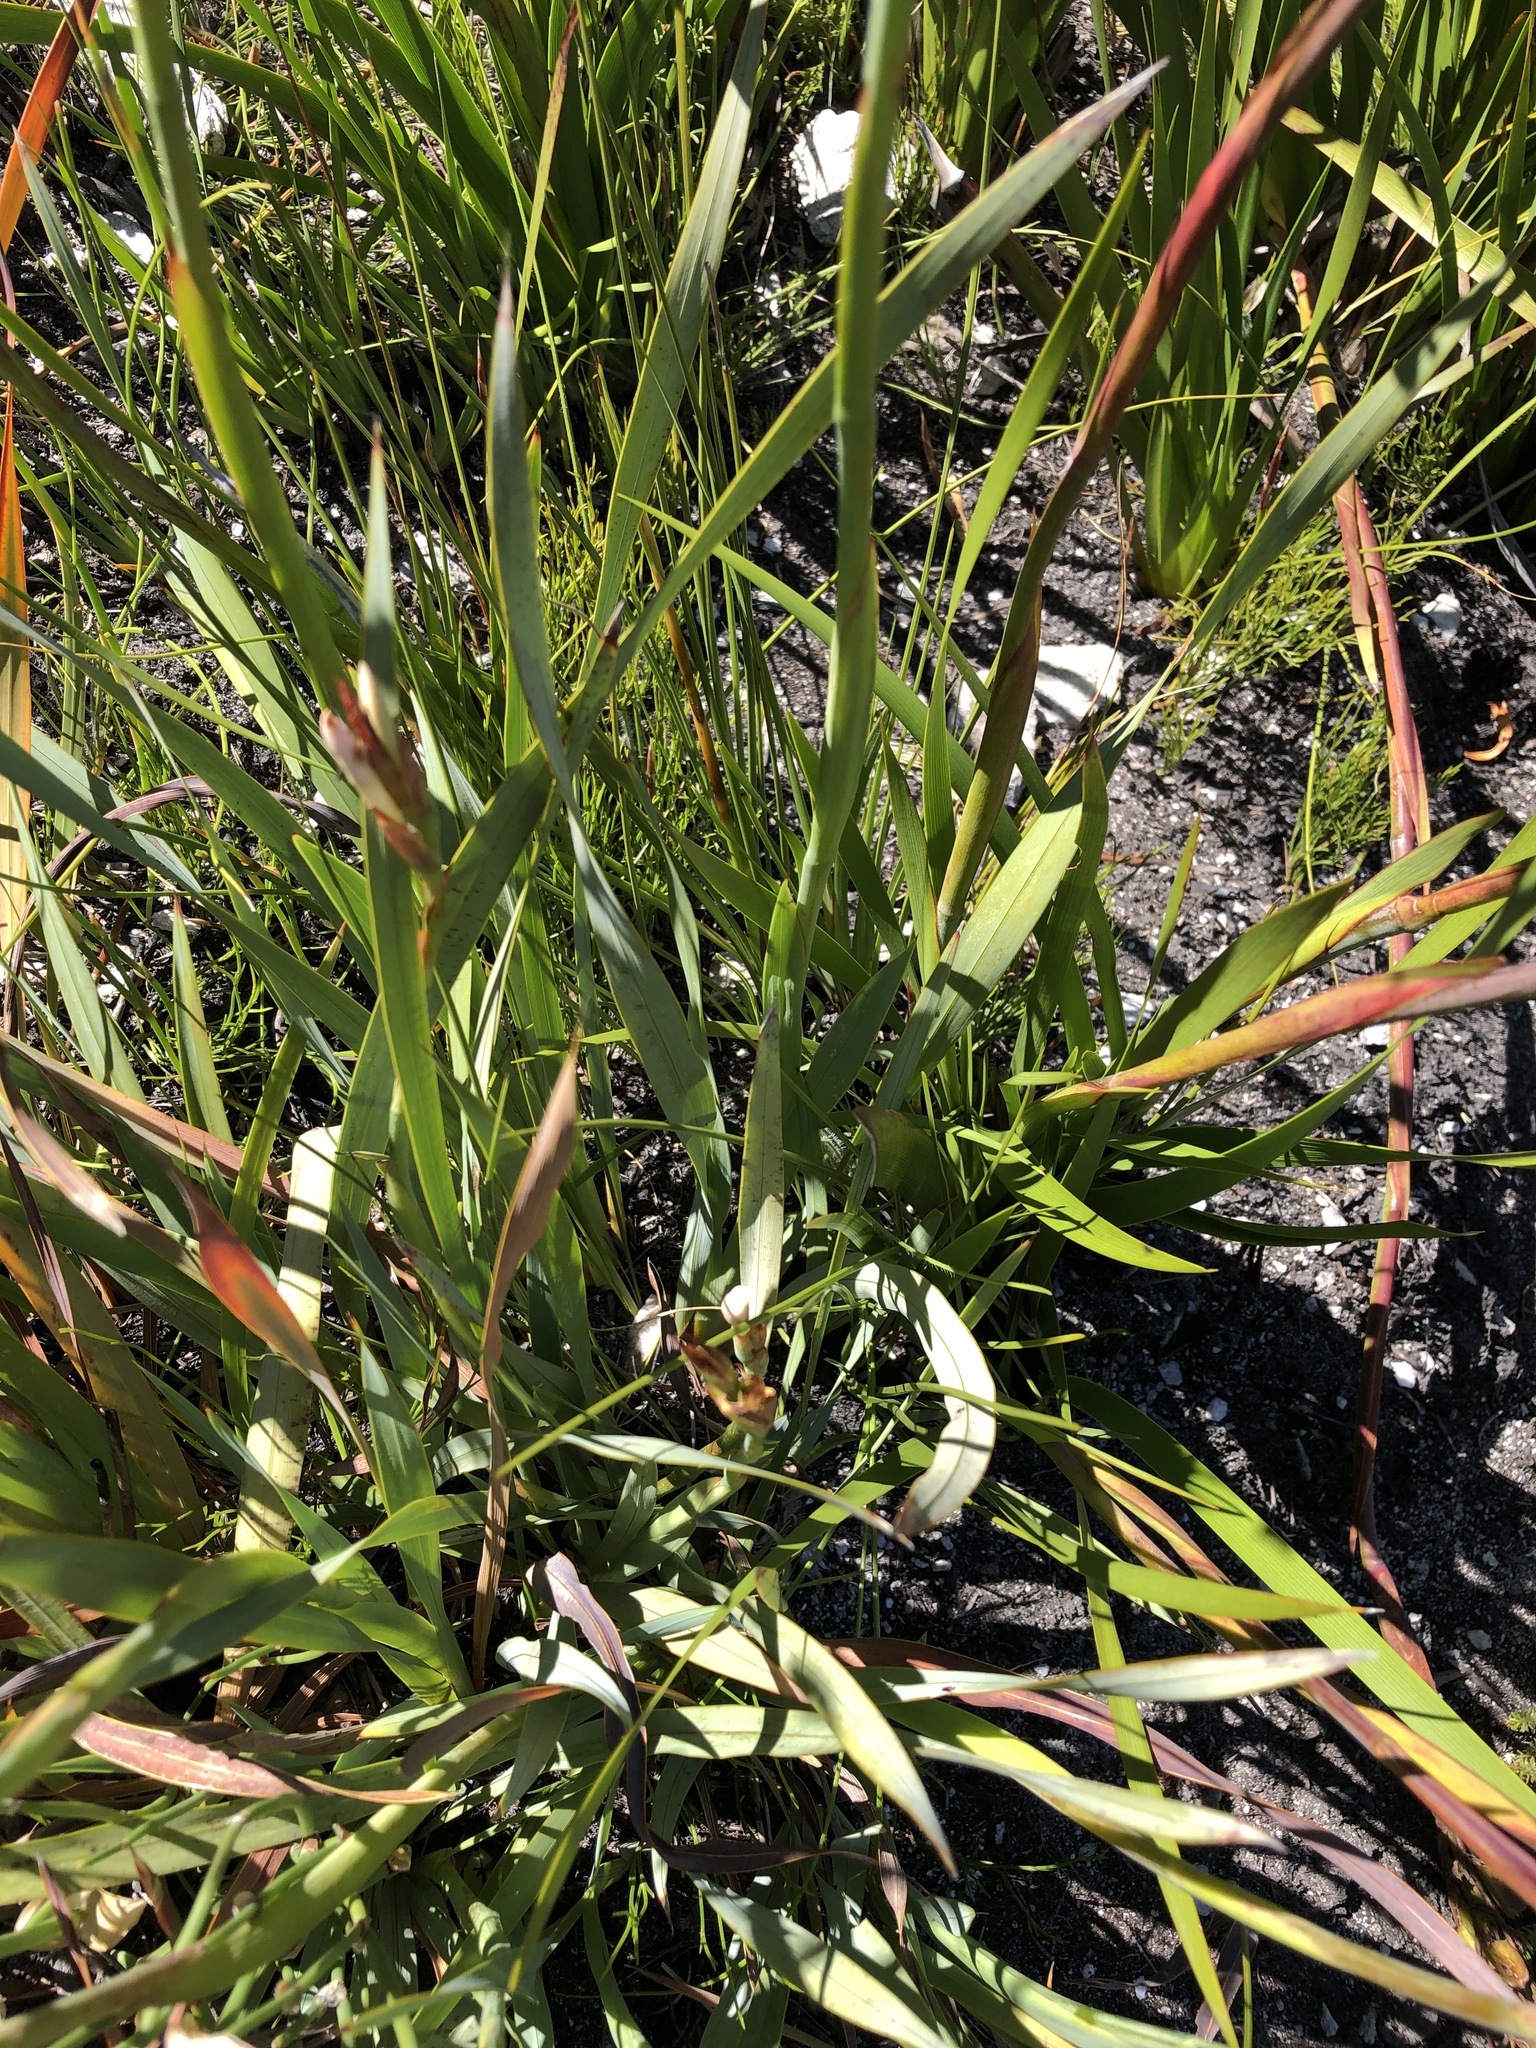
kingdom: Plantae
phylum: Tracheophyta
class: Liliopsida
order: Asparagales
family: Iridaceae
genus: Watsonia
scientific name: Watsonia knysnana
